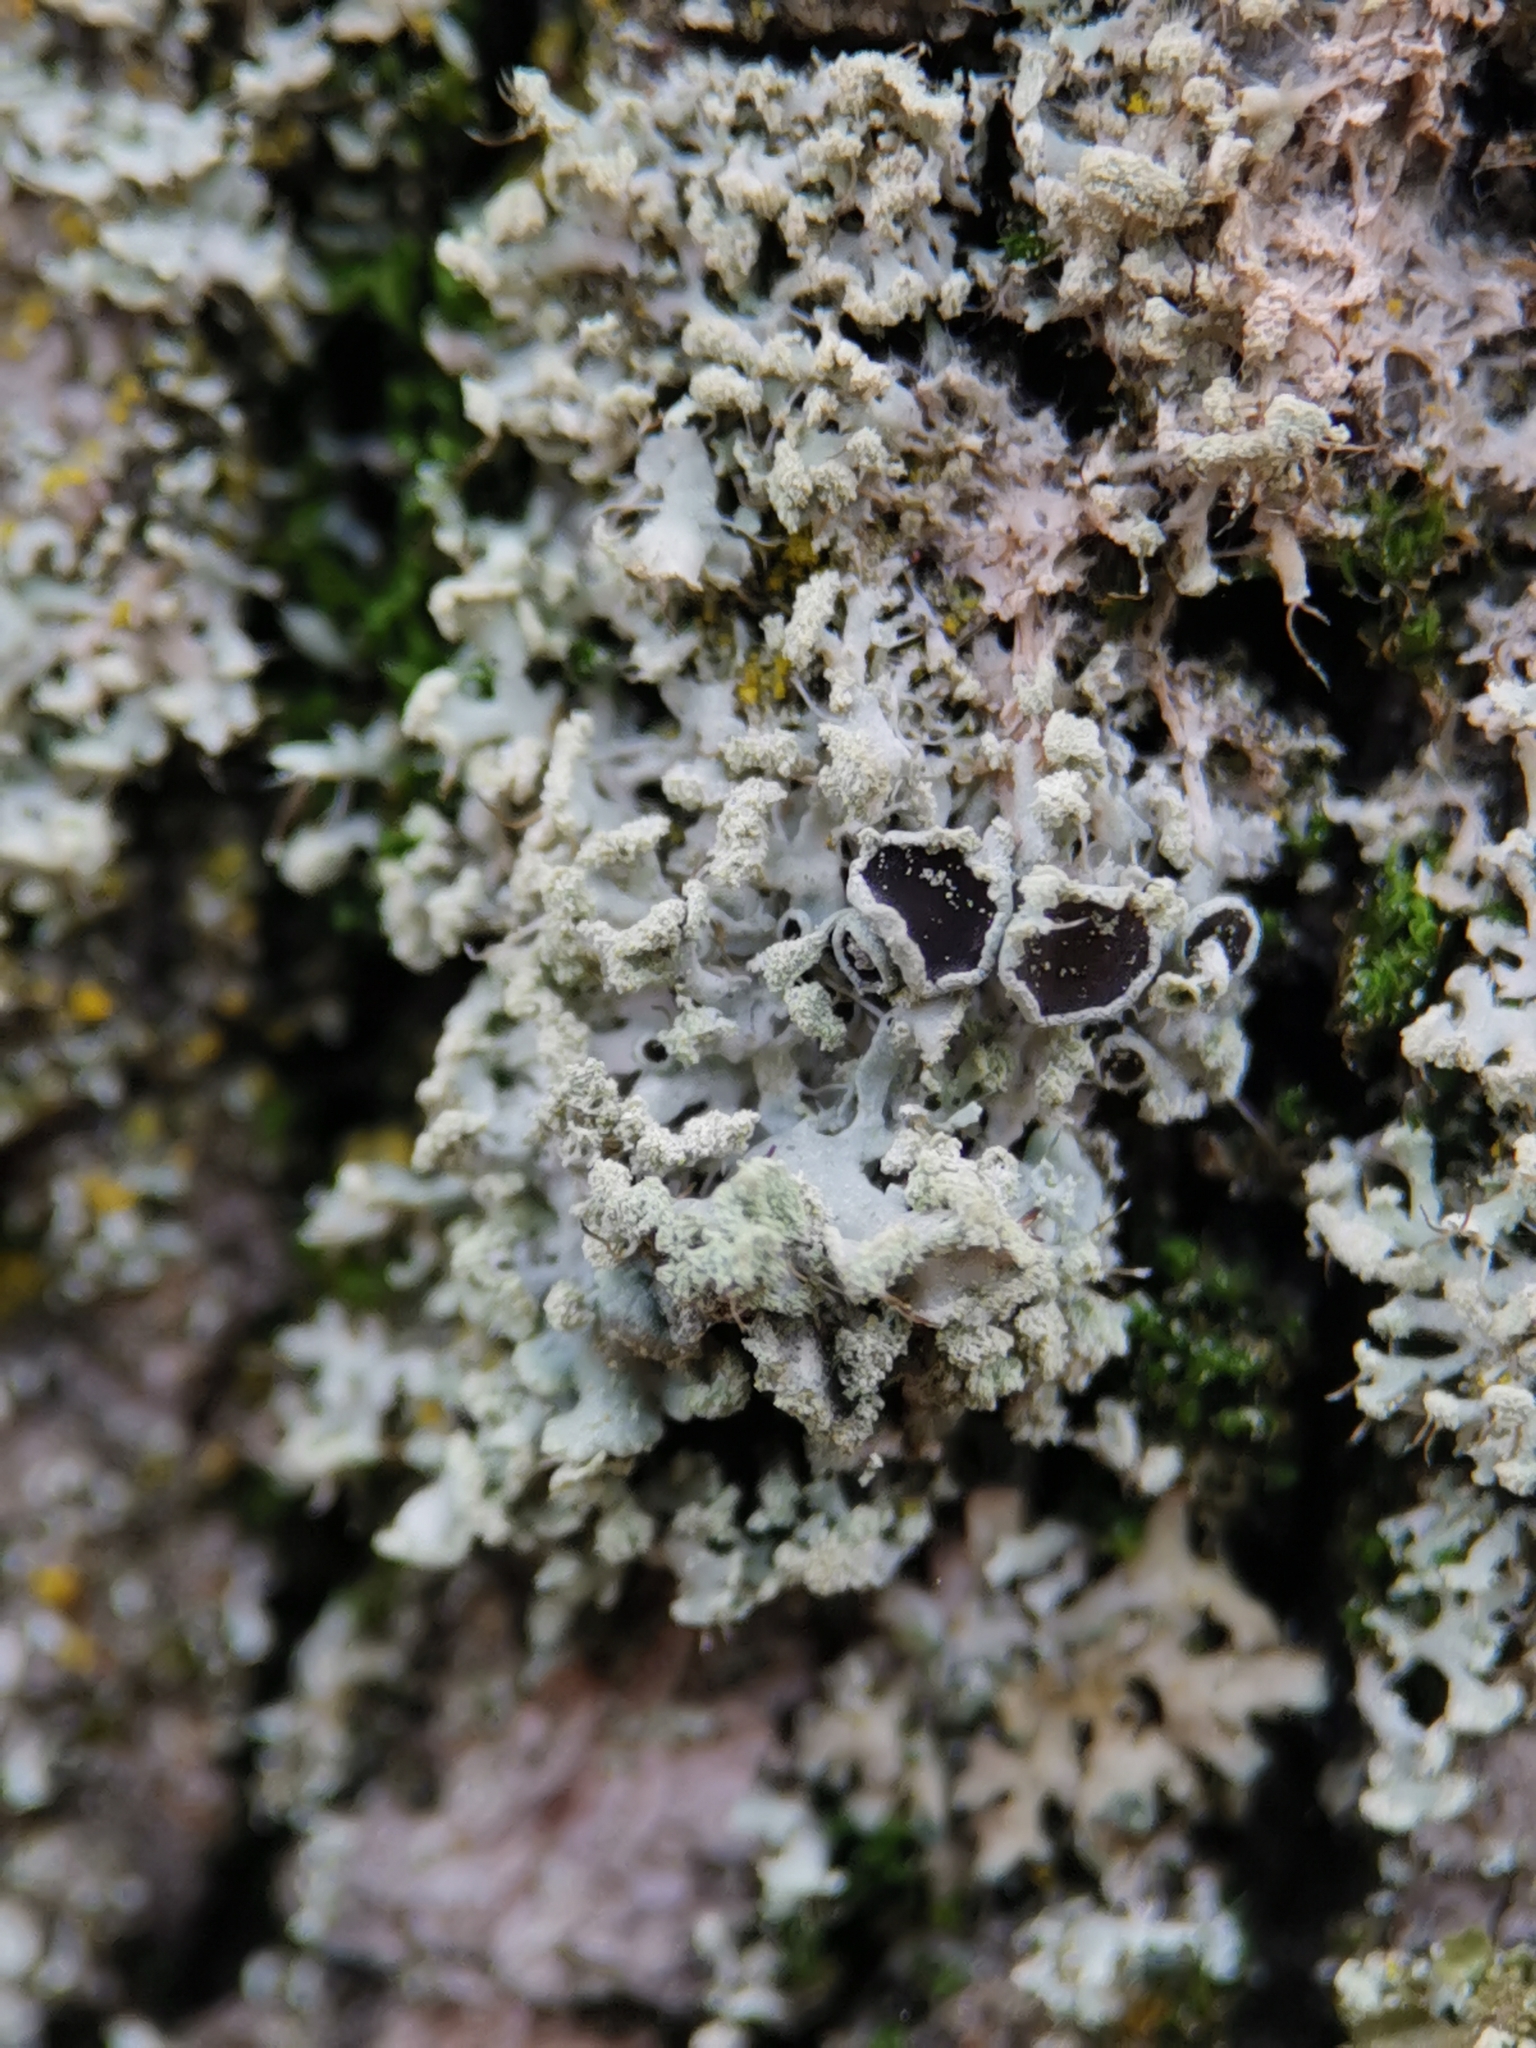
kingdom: Fungi
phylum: Ascomycota
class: Lecanoromycetes
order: Caliciales
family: Physciaceae
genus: Physcia
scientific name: Physcia tenella
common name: Fringed rosette lichen
